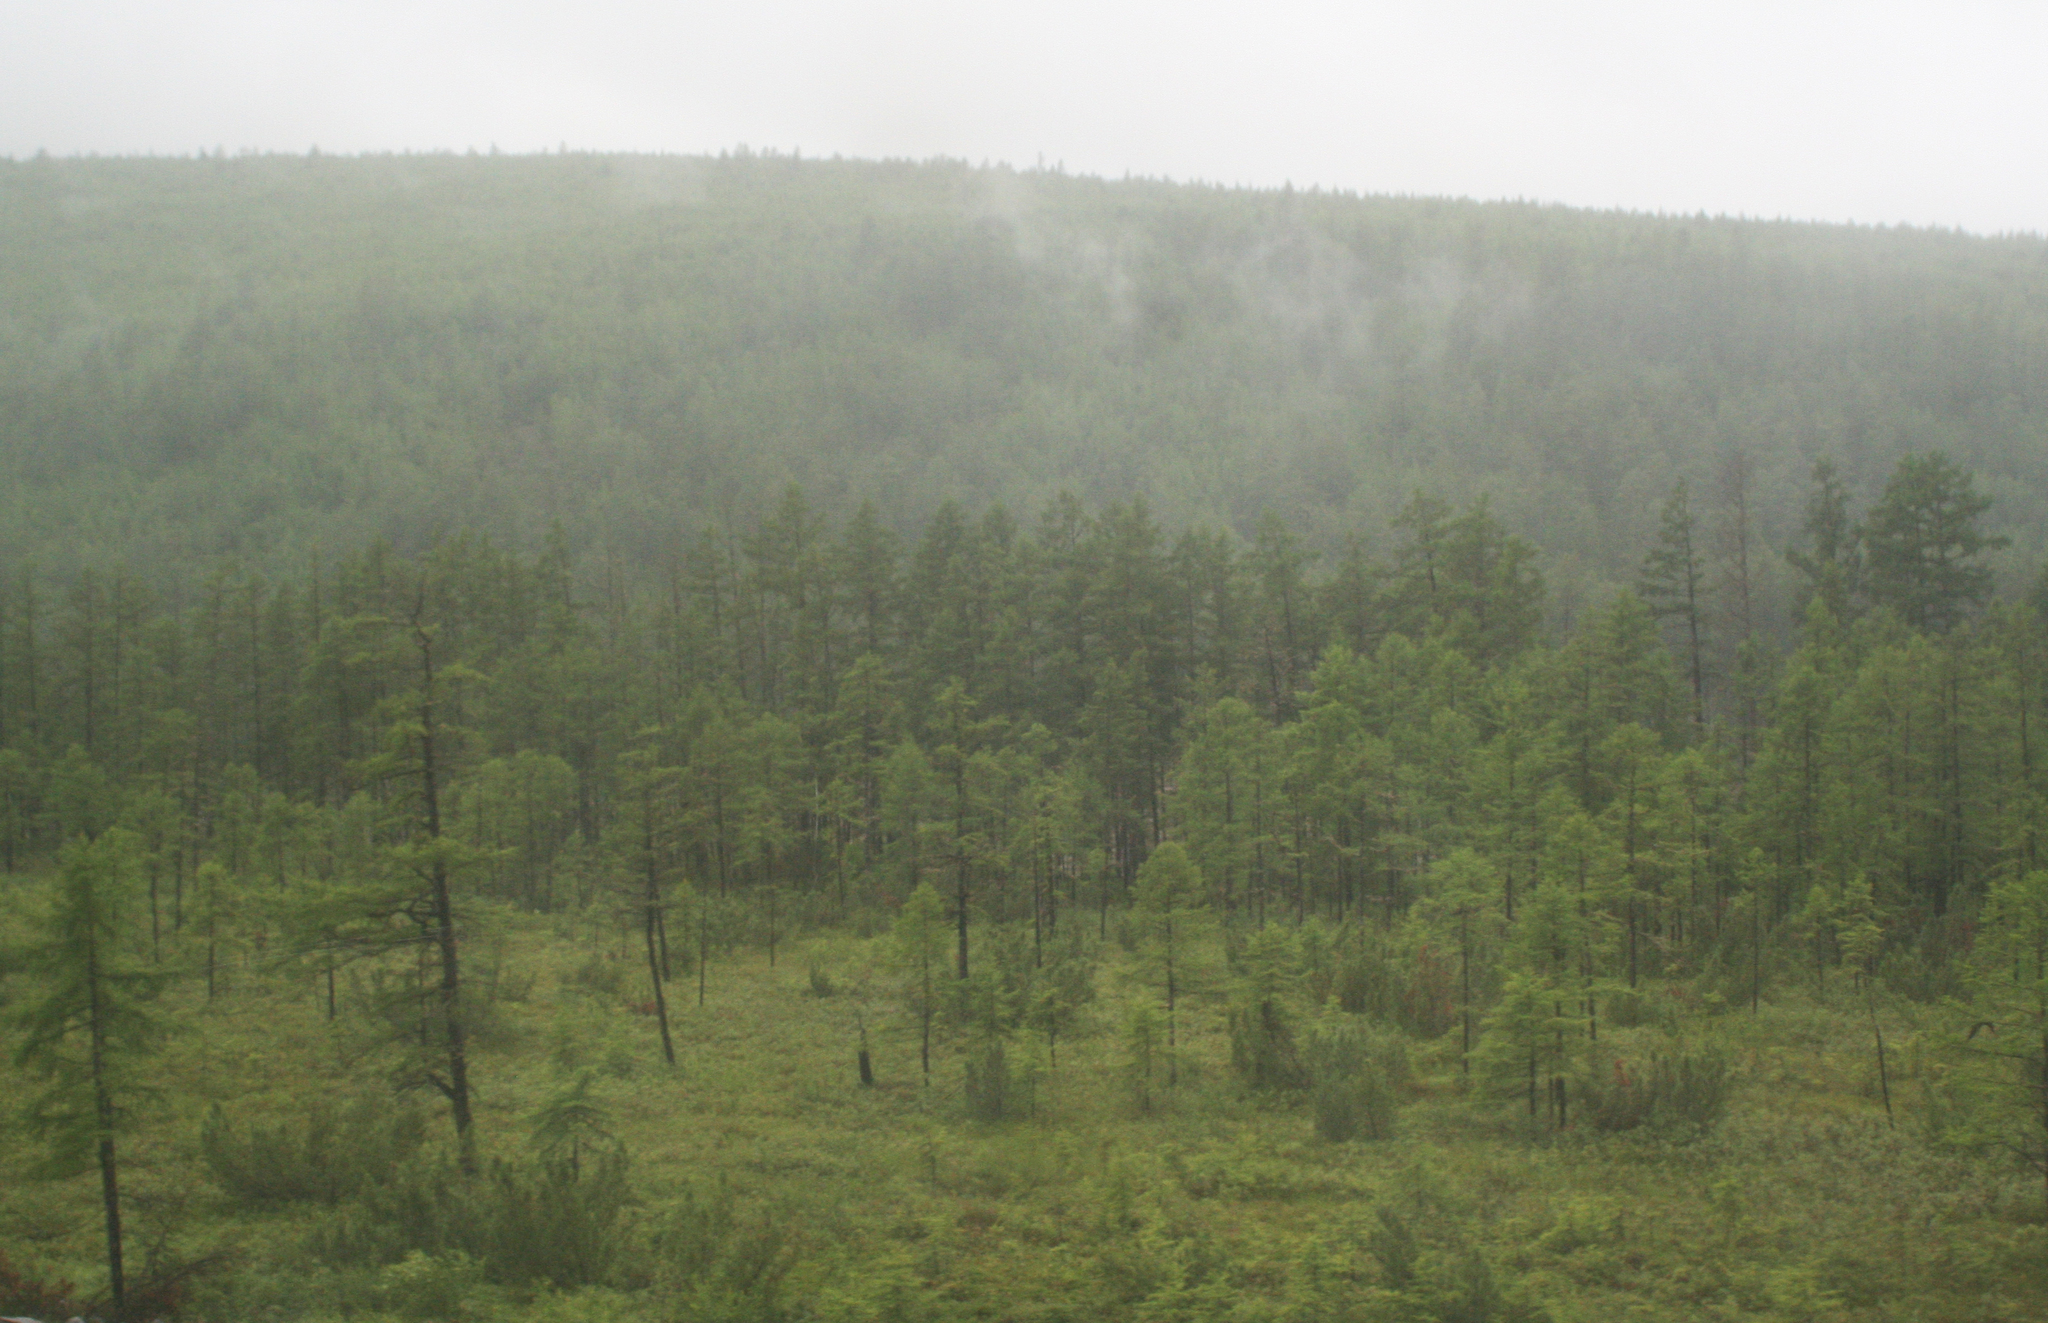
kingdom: Plantae
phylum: Tracheophyta
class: Pinopsida
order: Pinales
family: Pinaceae
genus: Larix
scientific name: Larix gmelinii
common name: Dahurian larch
